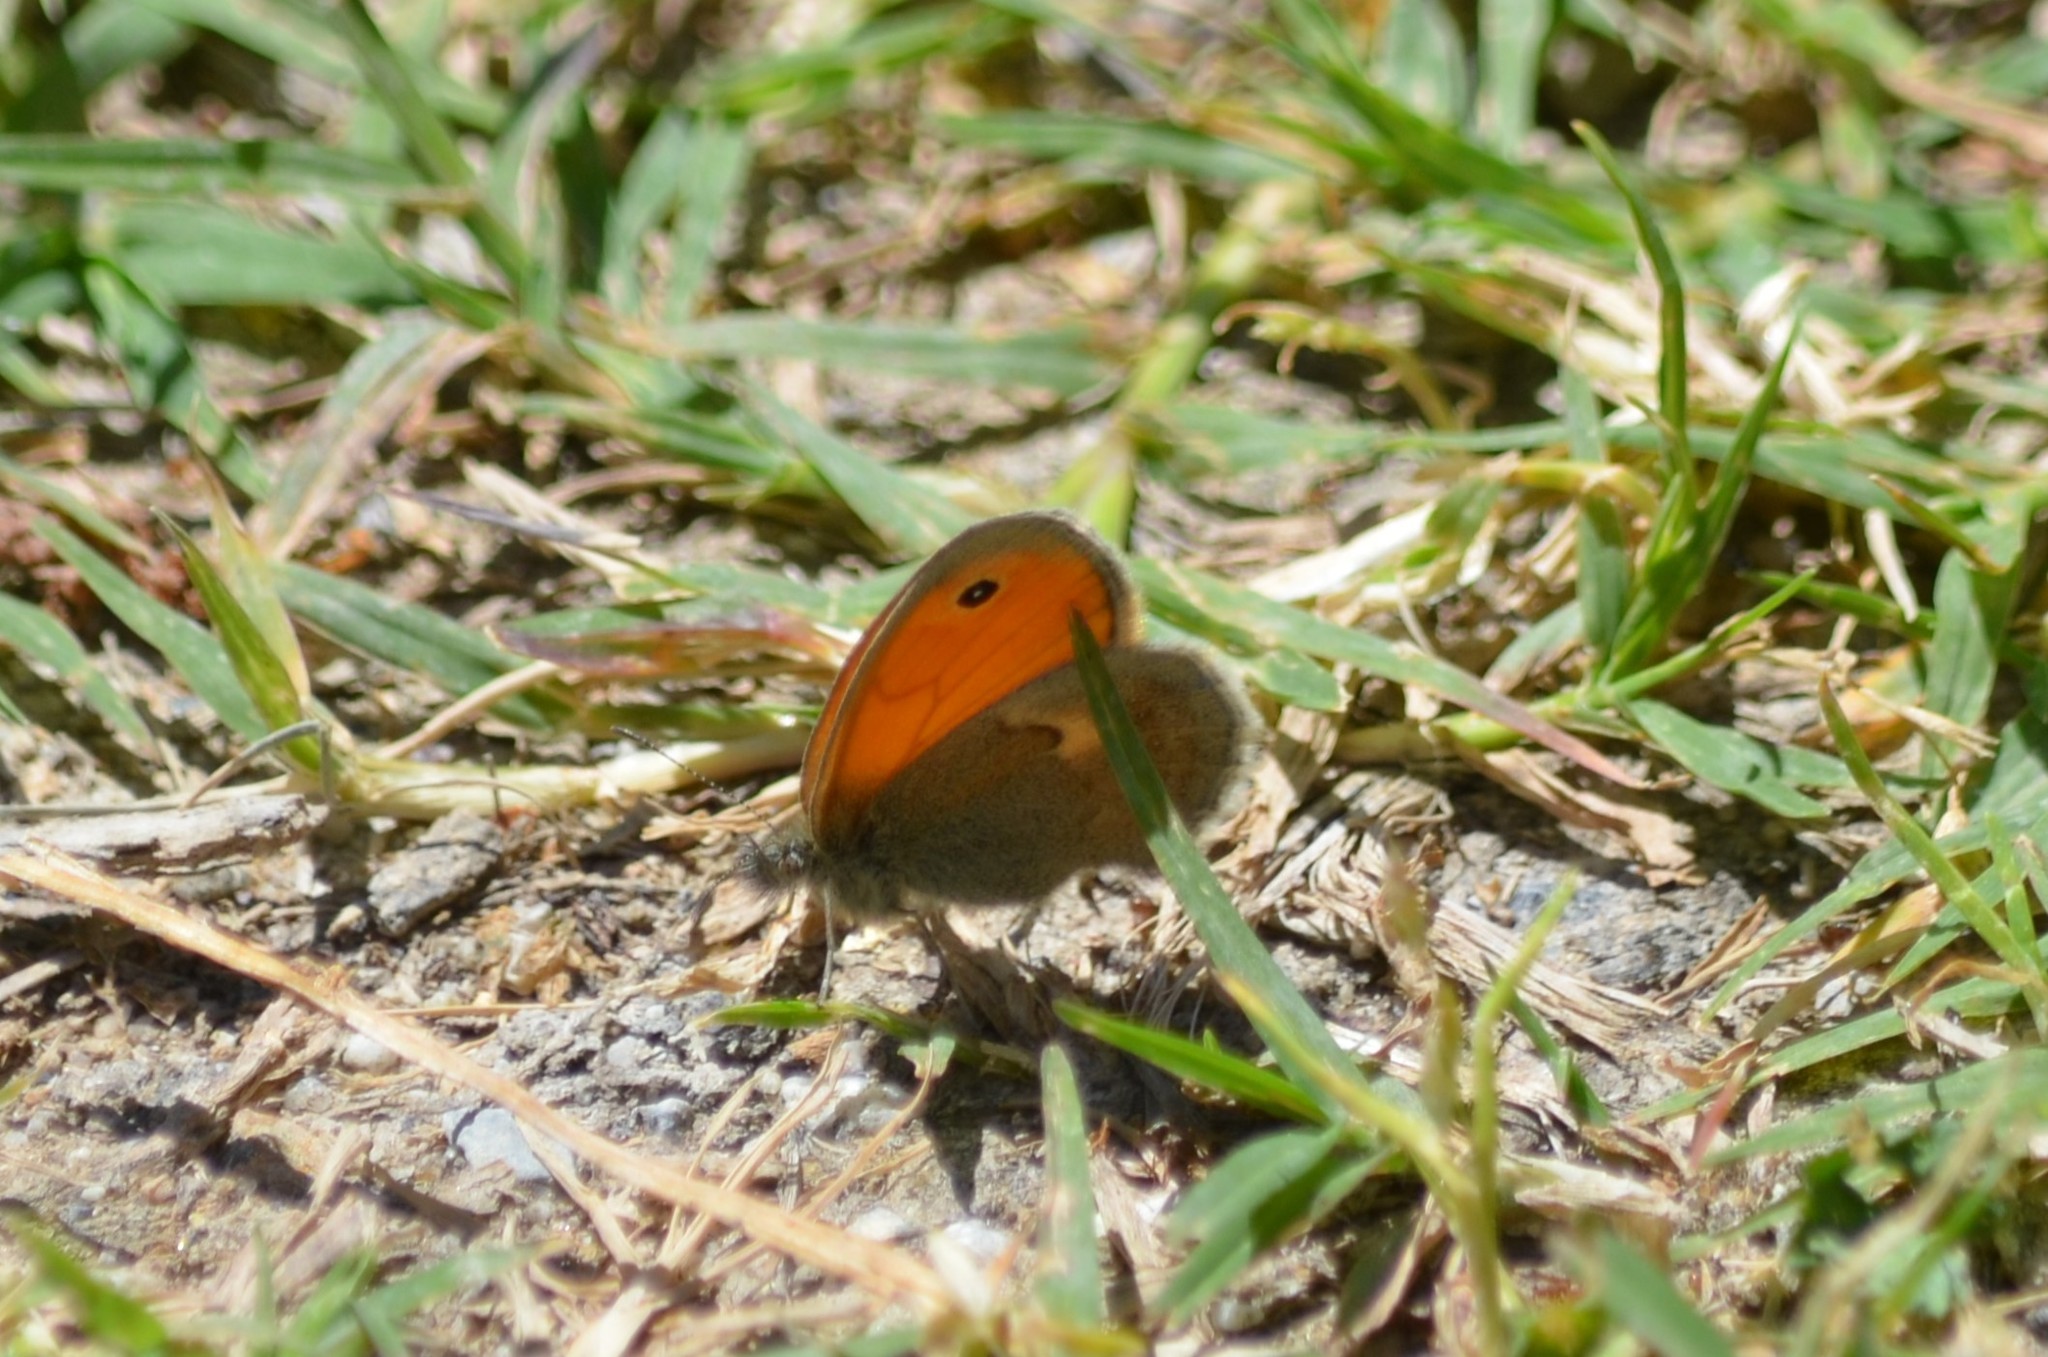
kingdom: Animalia
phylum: Arthropoda
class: Insecta
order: Lepidoptera
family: Nymphalidae
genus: Coenonympha
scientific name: Coenonympha pamphilus
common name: Small heath
